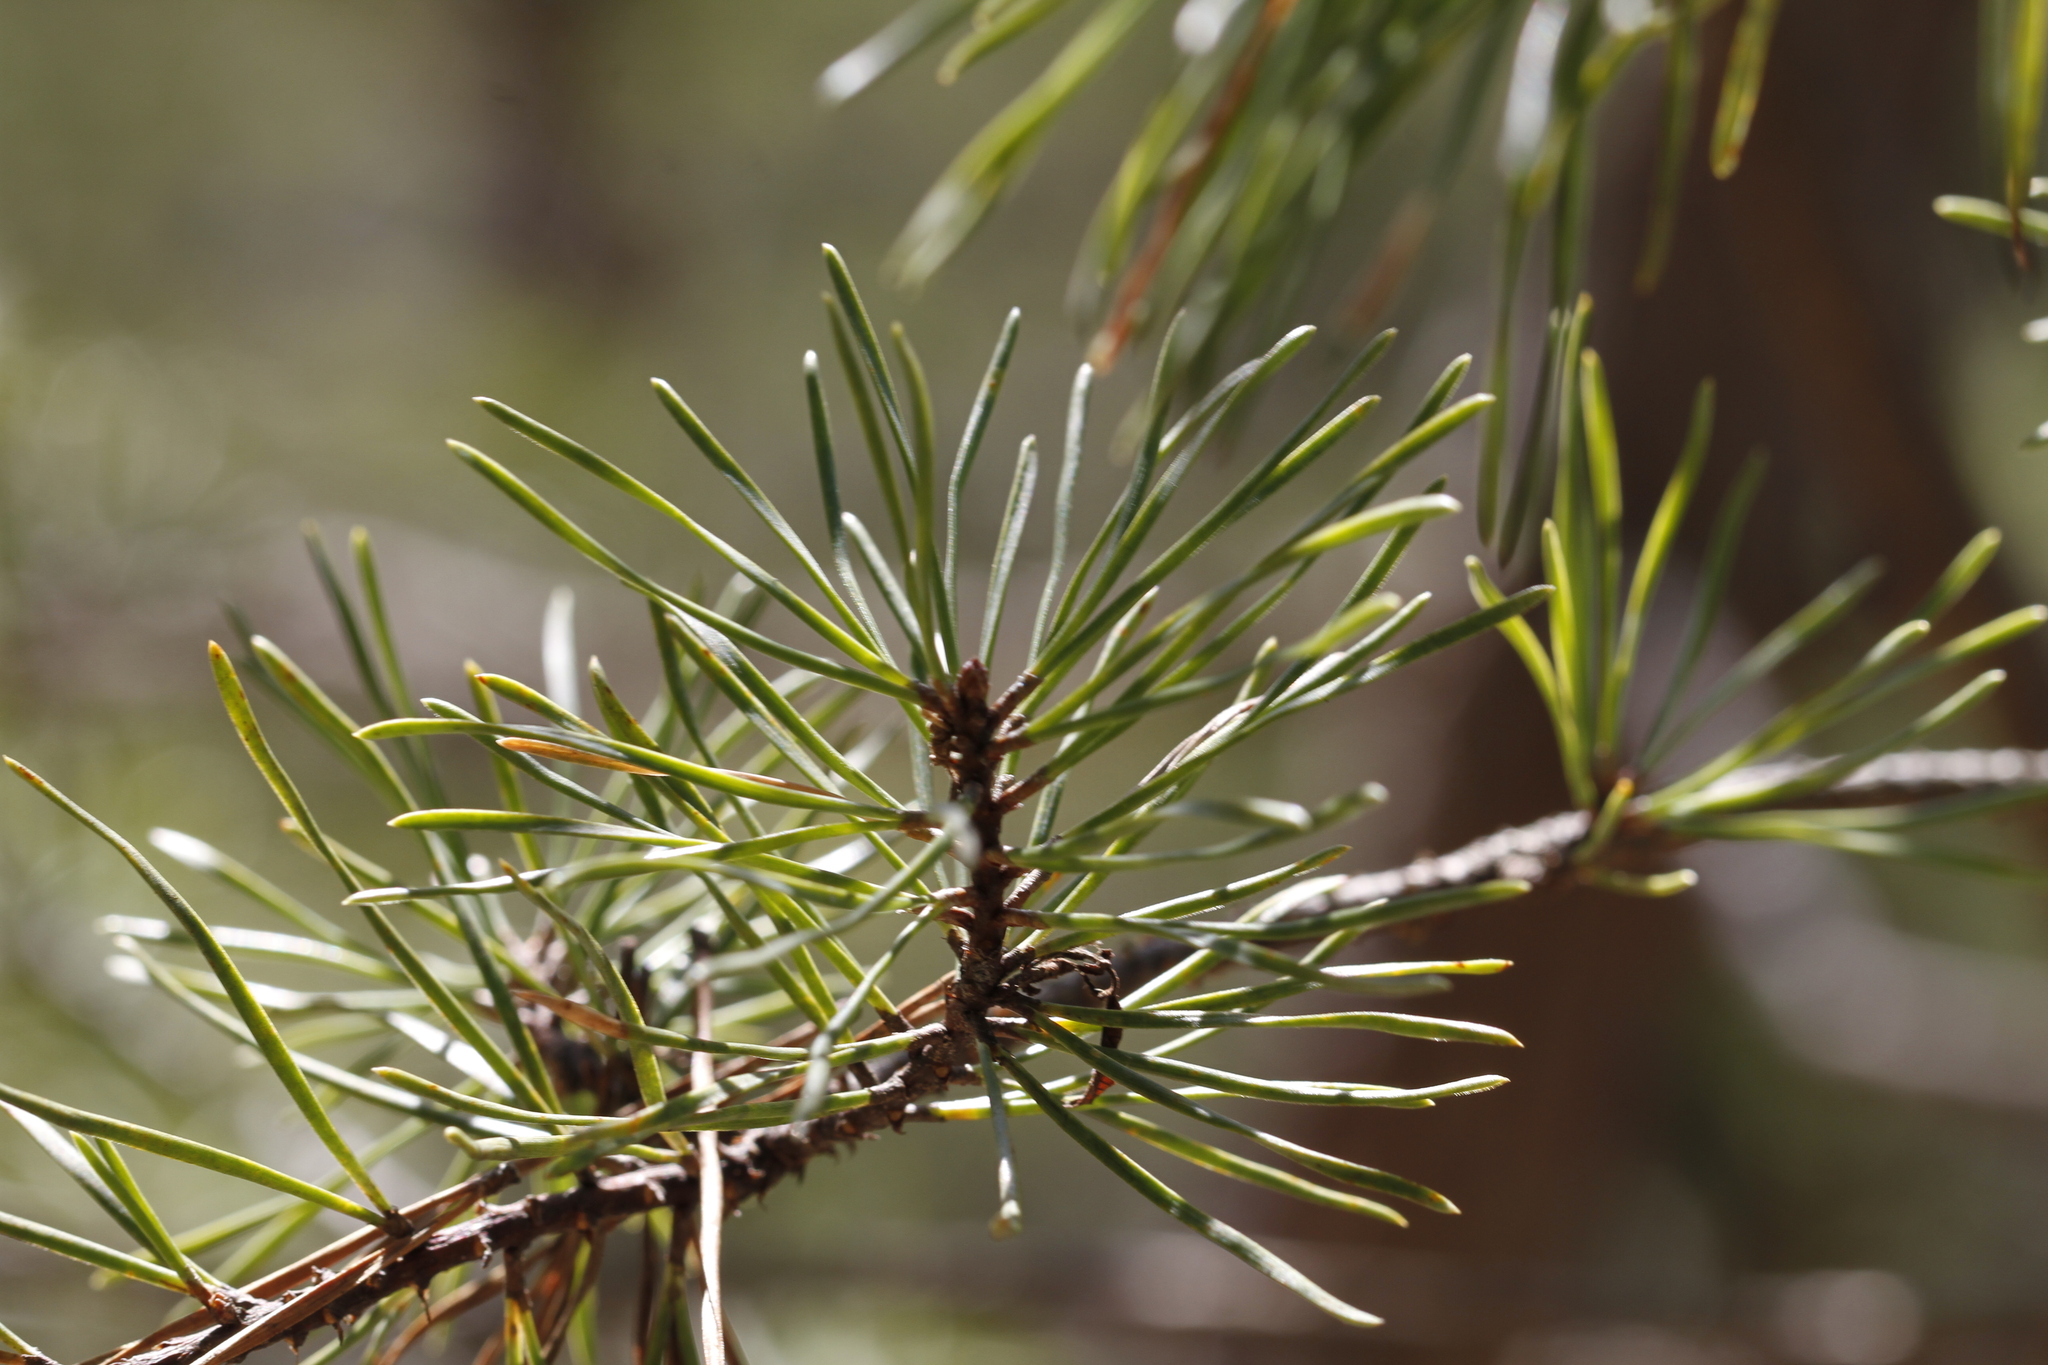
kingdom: Plantae
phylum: Tracheophyta
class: Pinopsida
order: Pinales
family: Pinaceae
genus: Pinus
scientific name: Pinus virginiana
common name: Scrub pine
